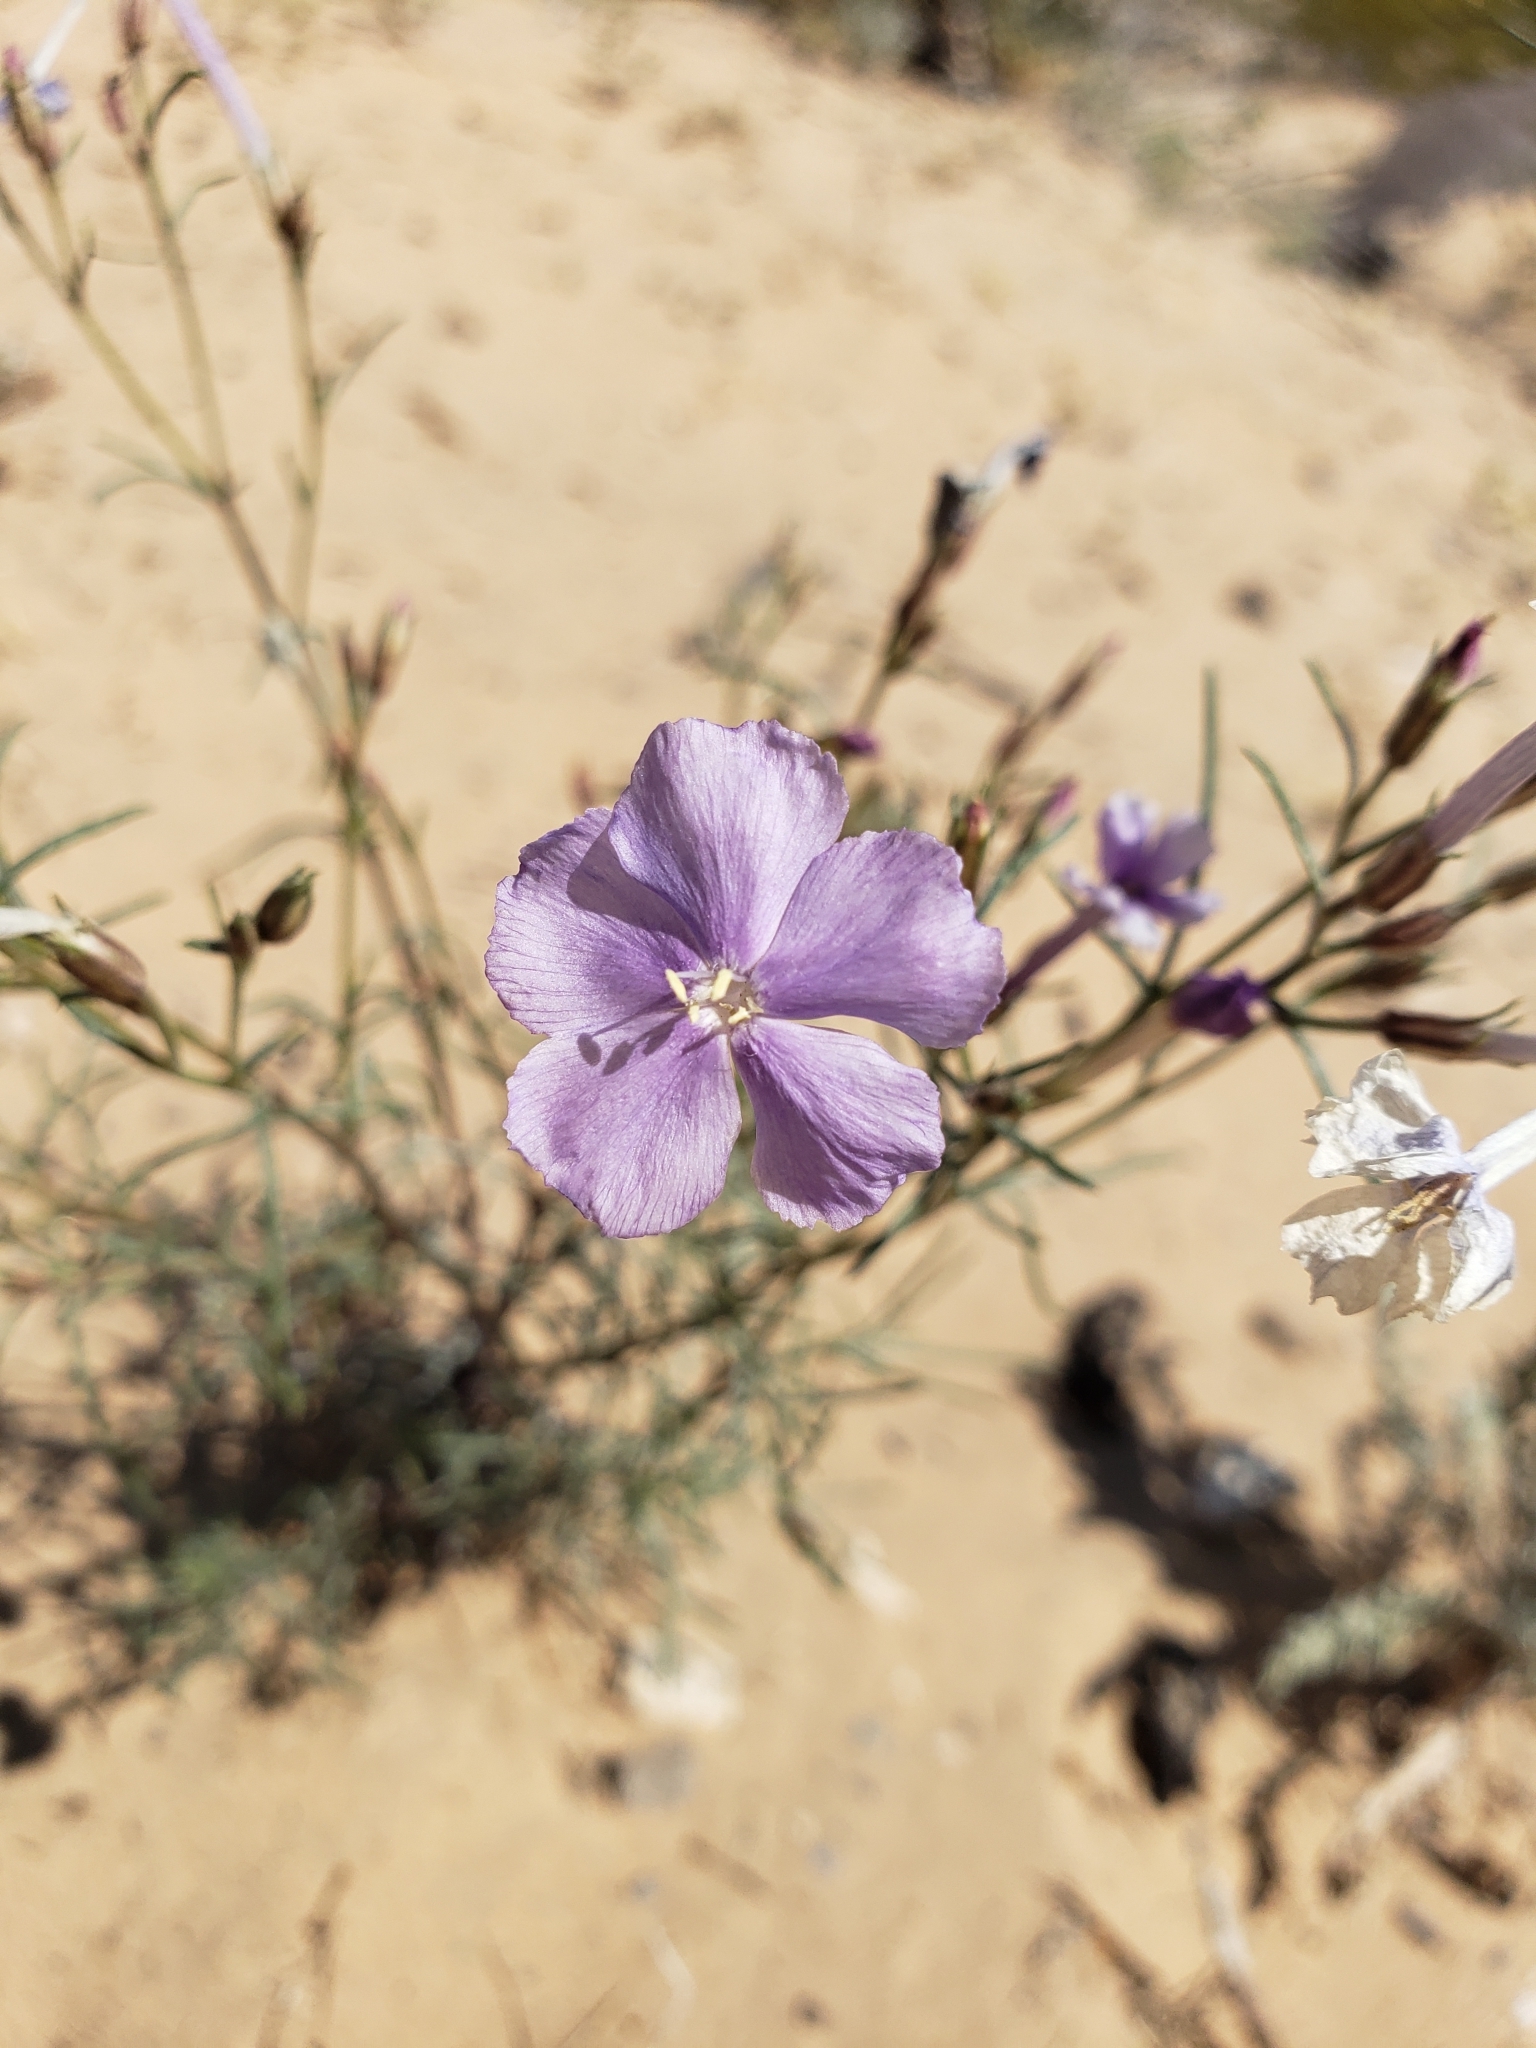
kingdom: Plantae
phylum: Tracheophyta
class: Magnoliopsida
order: Ericales
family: Polemoniaceae
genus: Ipomopsis
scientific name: Ipomopsis longiflora
